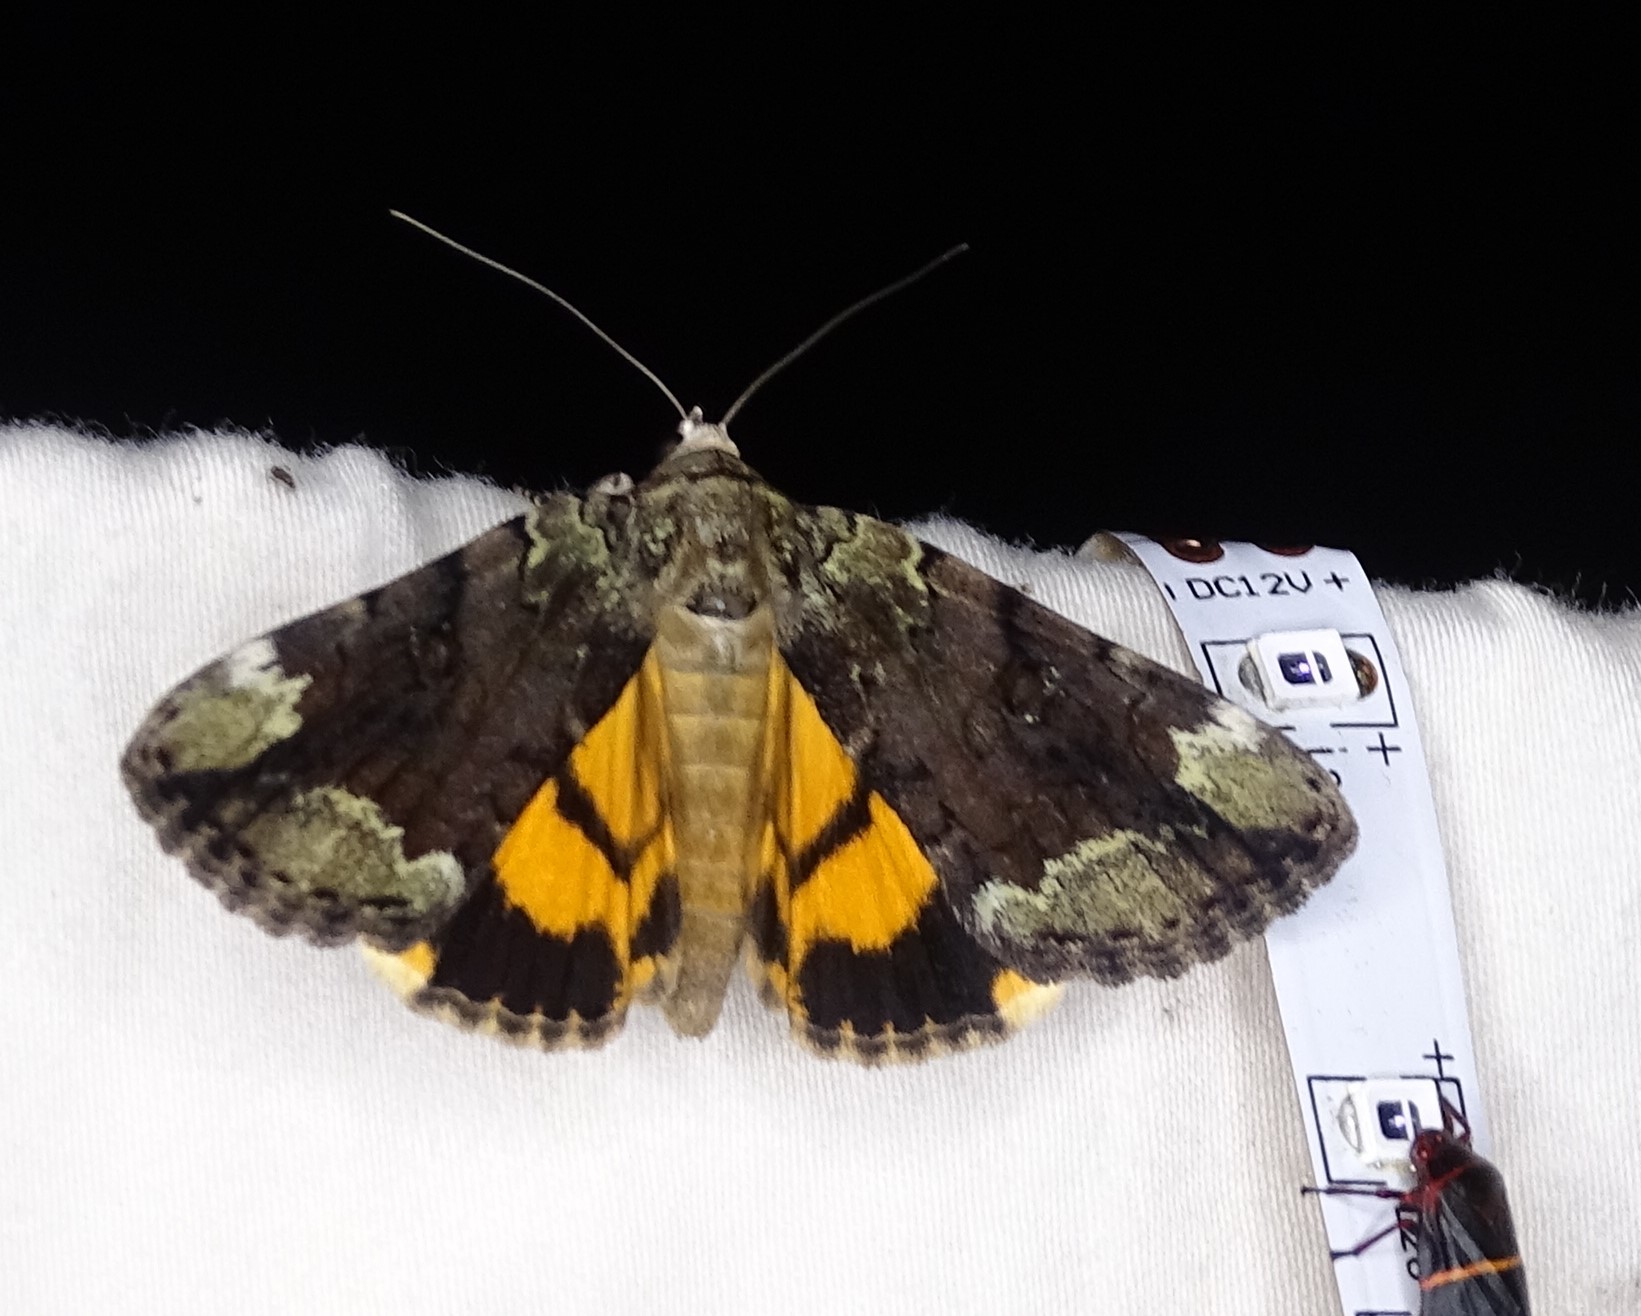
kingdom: Animalia
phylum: Arthropoda
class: Insecta
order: Lepidoptera
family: Erebidae
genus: Catocala
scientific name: Catocala micronympha
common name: Little nymph underwing
